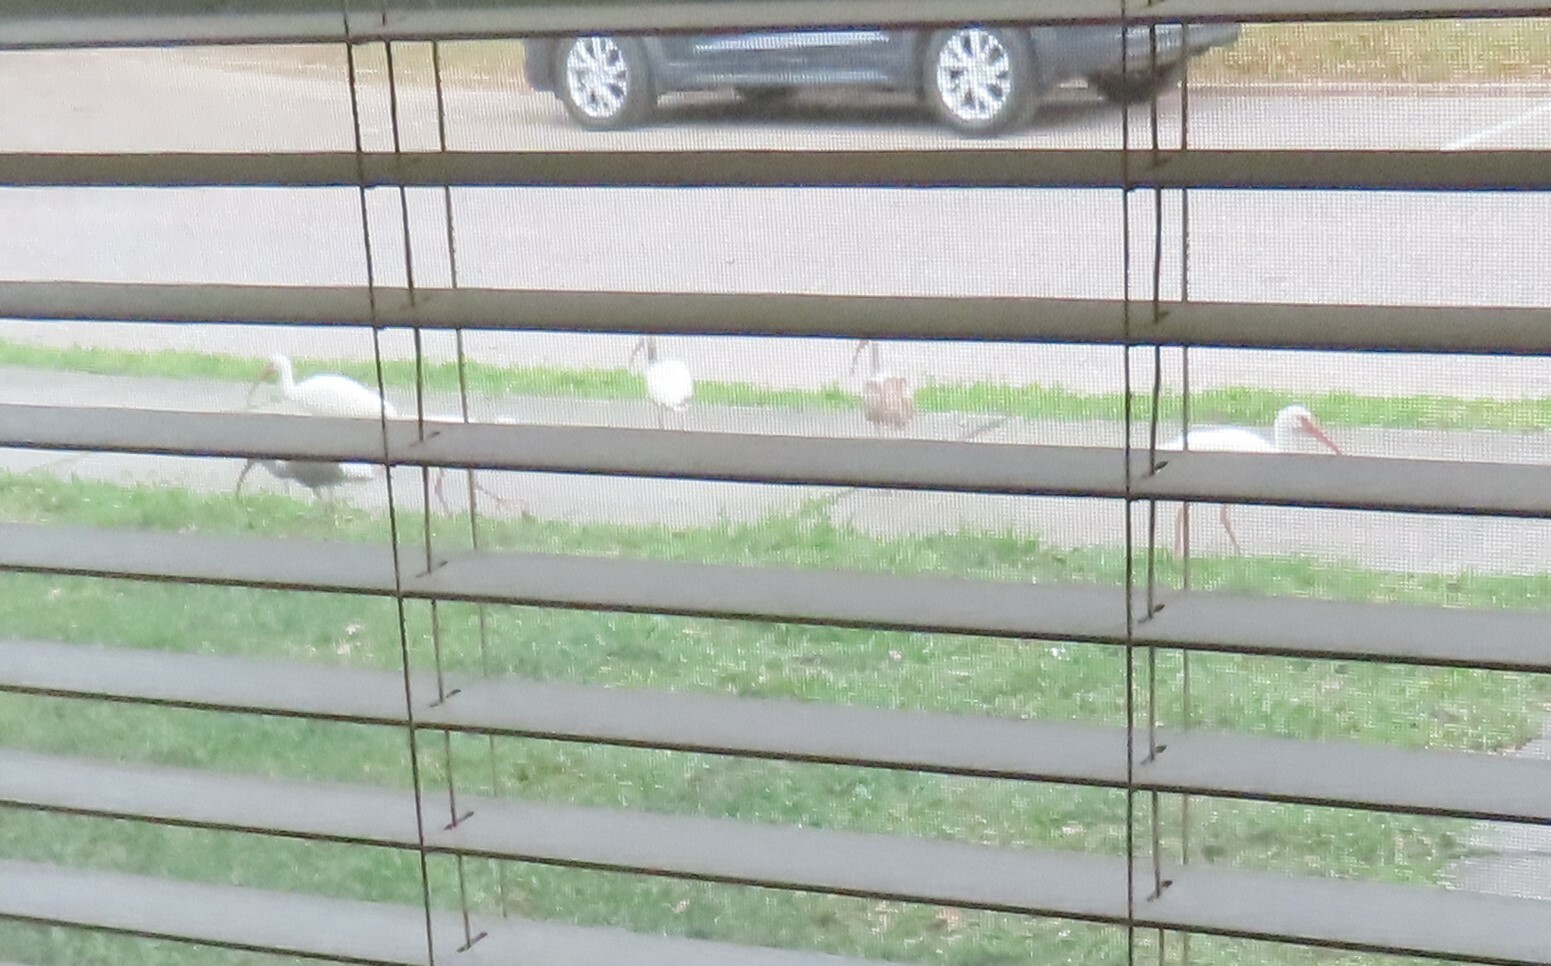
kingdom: Animalia
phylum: Chordata
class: Aves
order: Pelecaniformes
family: Threskiornithidae
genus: Eudocimus
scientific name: Eudocimus albus
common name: White ibis
